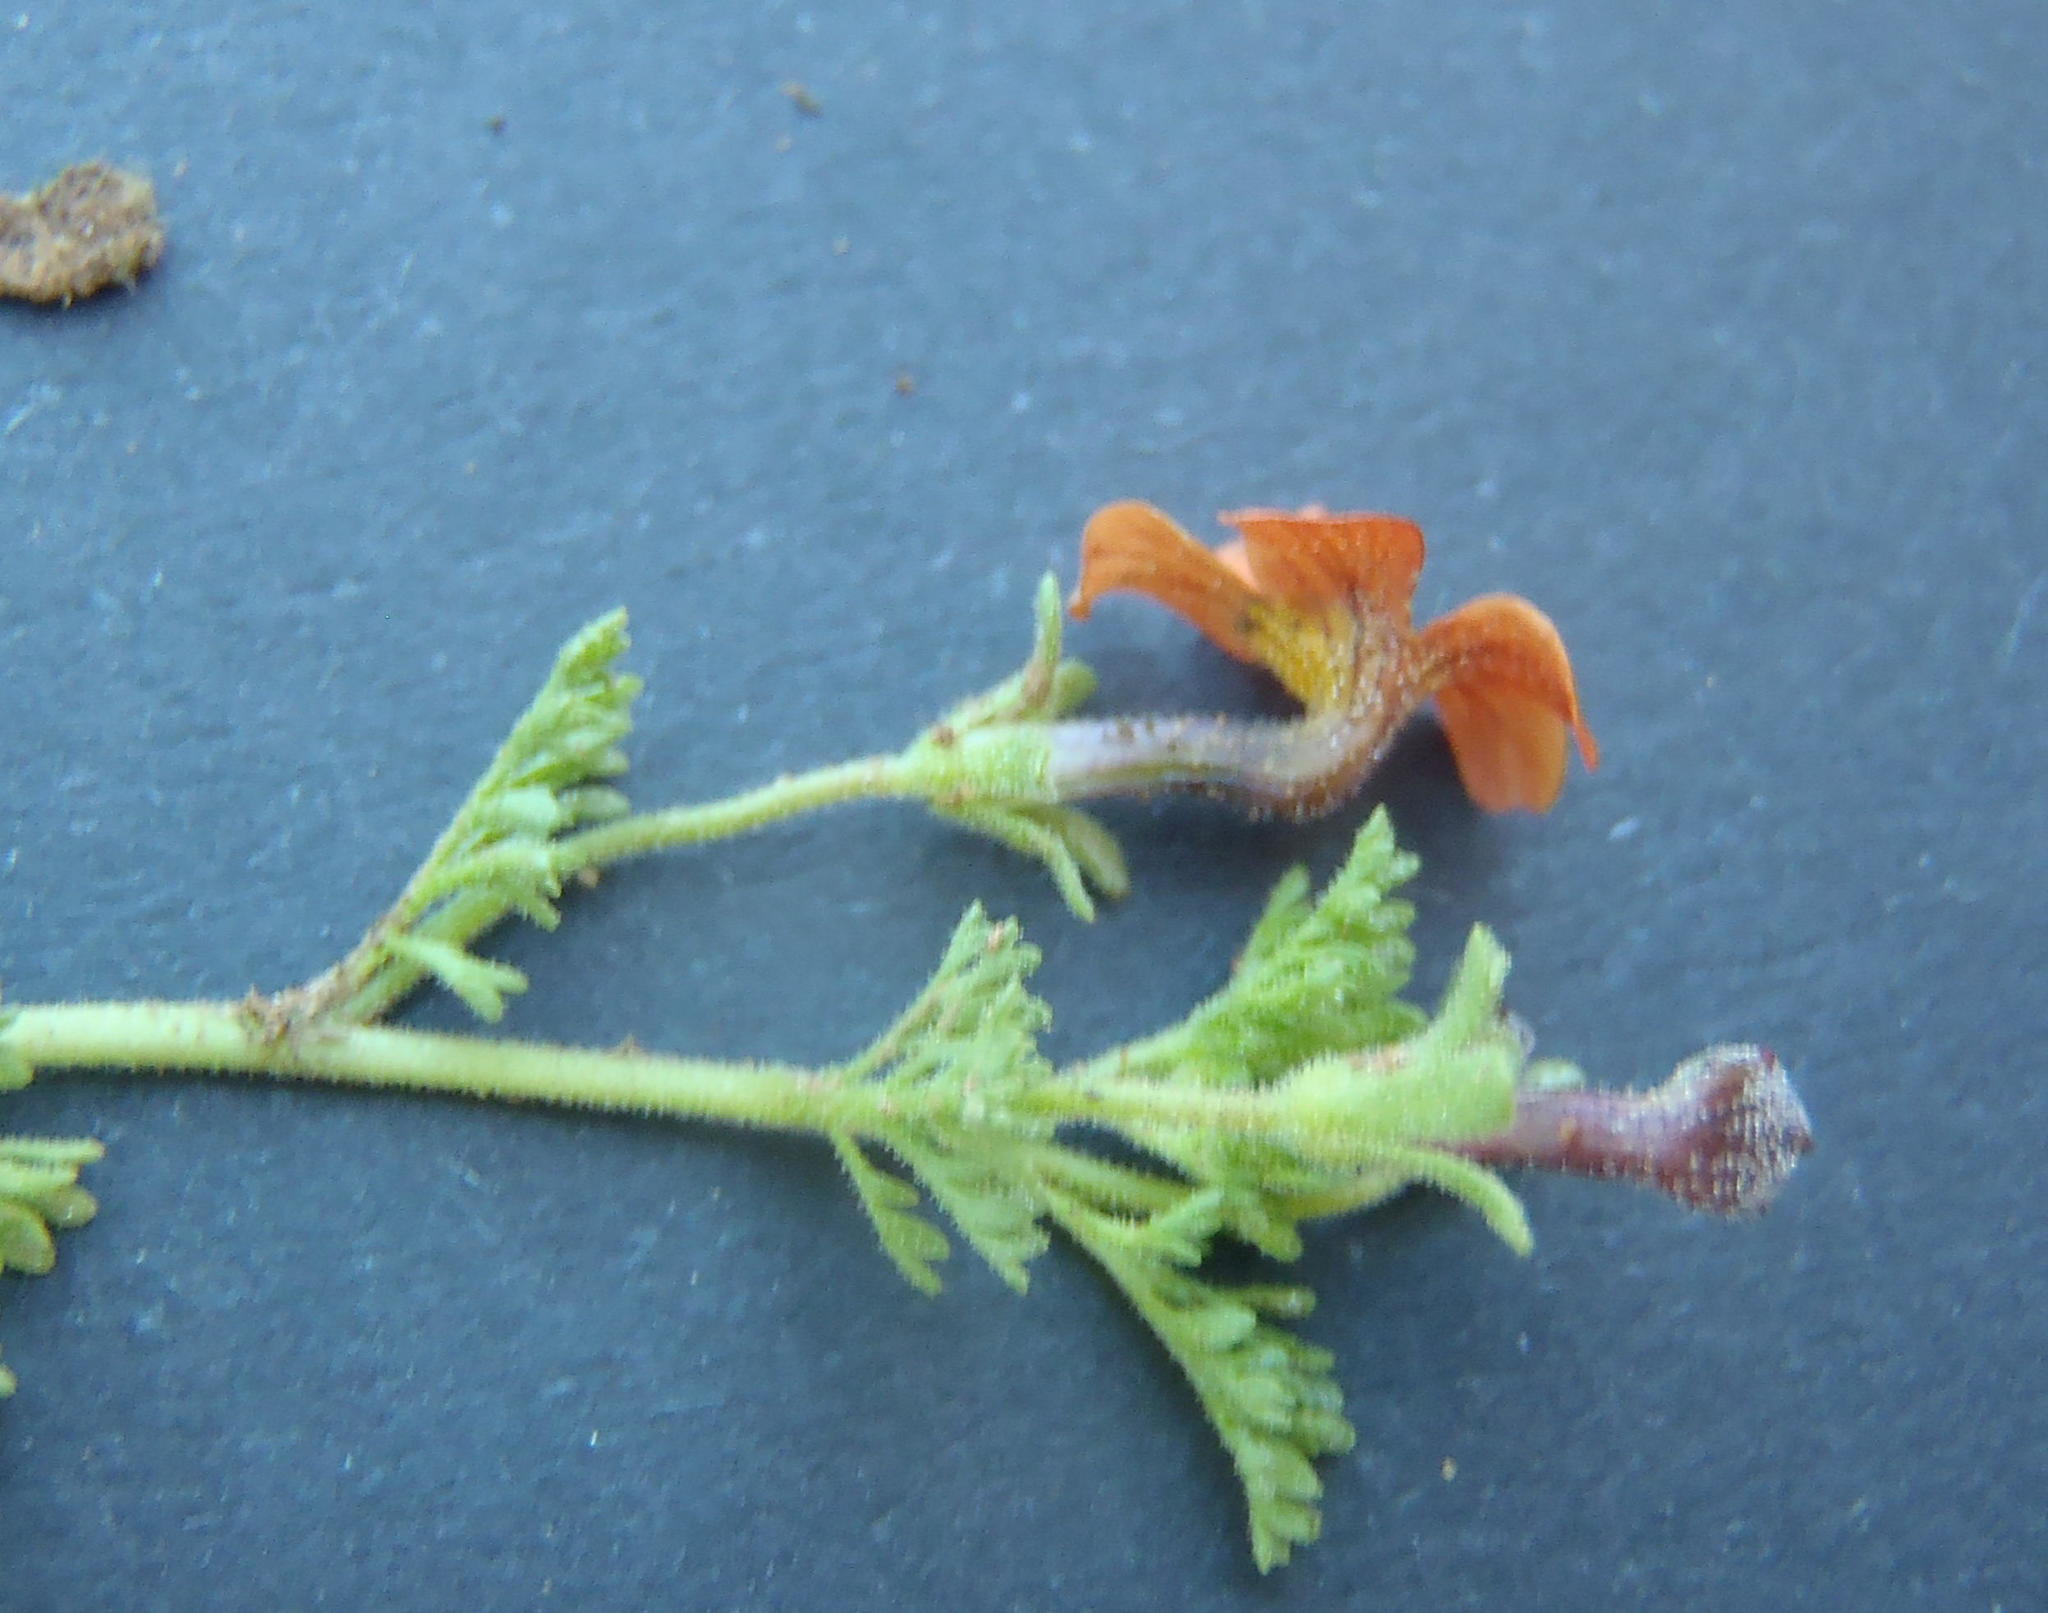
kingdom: Plantae
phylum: Tracheophyta
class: Magnoliopsida
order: Lamiales
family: Scrophulariaceae
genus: Jamesbrittenia
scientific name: Jamesbrittenia aurantiaca
